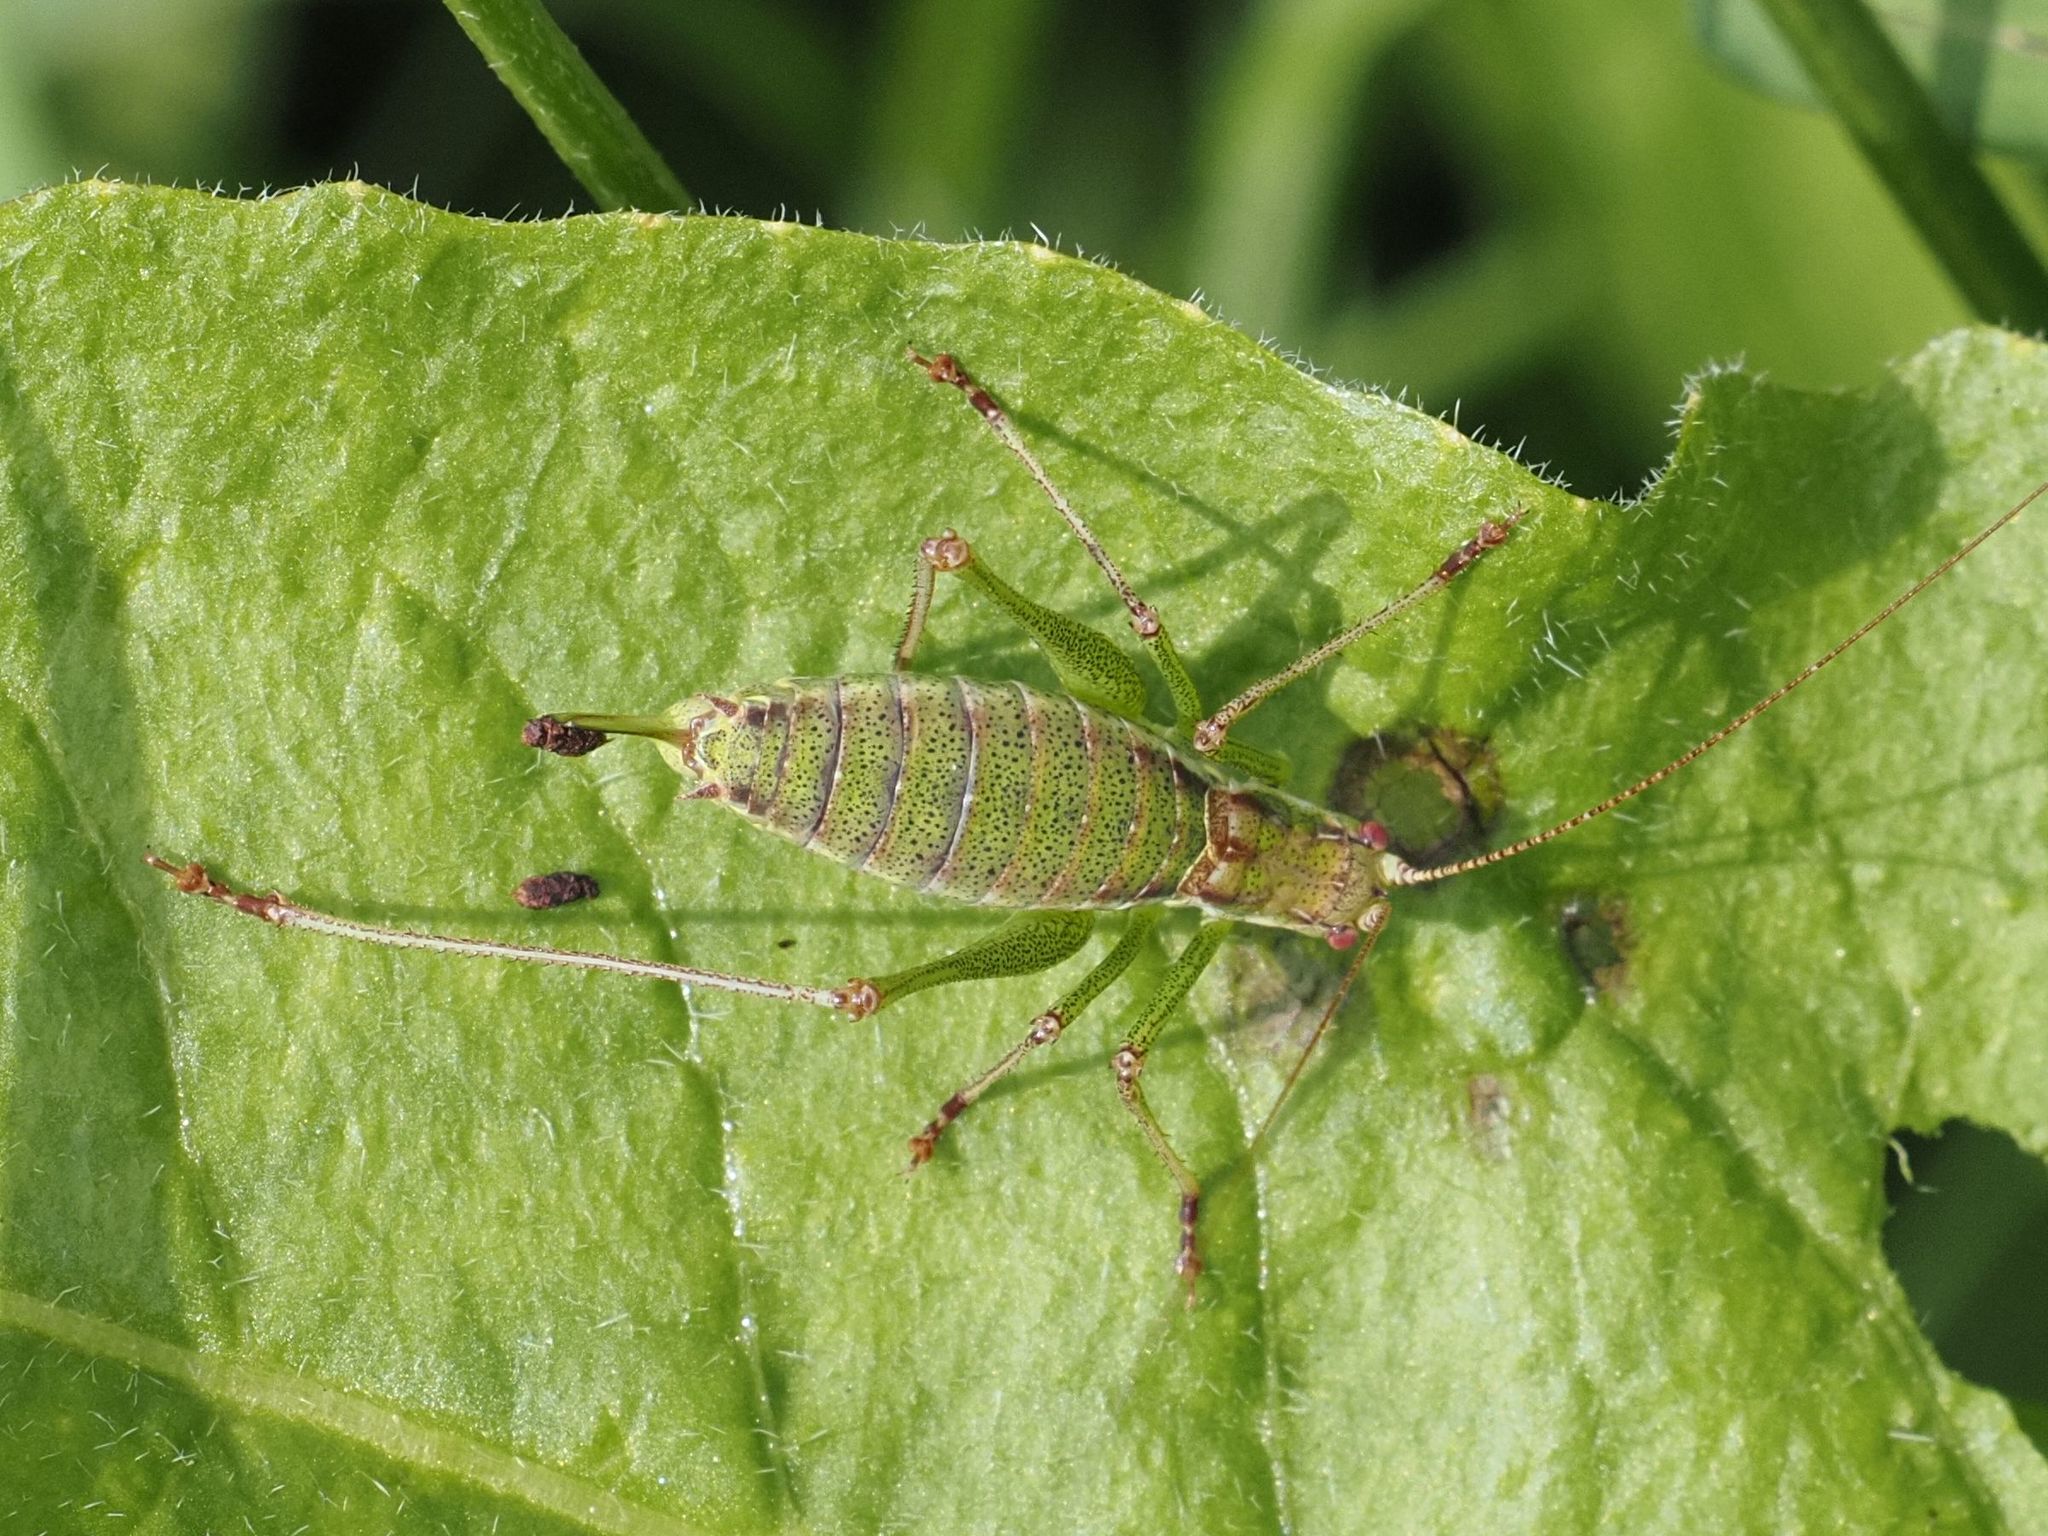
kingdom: Animalia
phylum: Arthropoda
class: Insecta
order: Orthoptera
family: Tettigoniidae
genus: Leptophyes
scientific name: Leptophyes albovittata
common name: Striped bush-cricket
